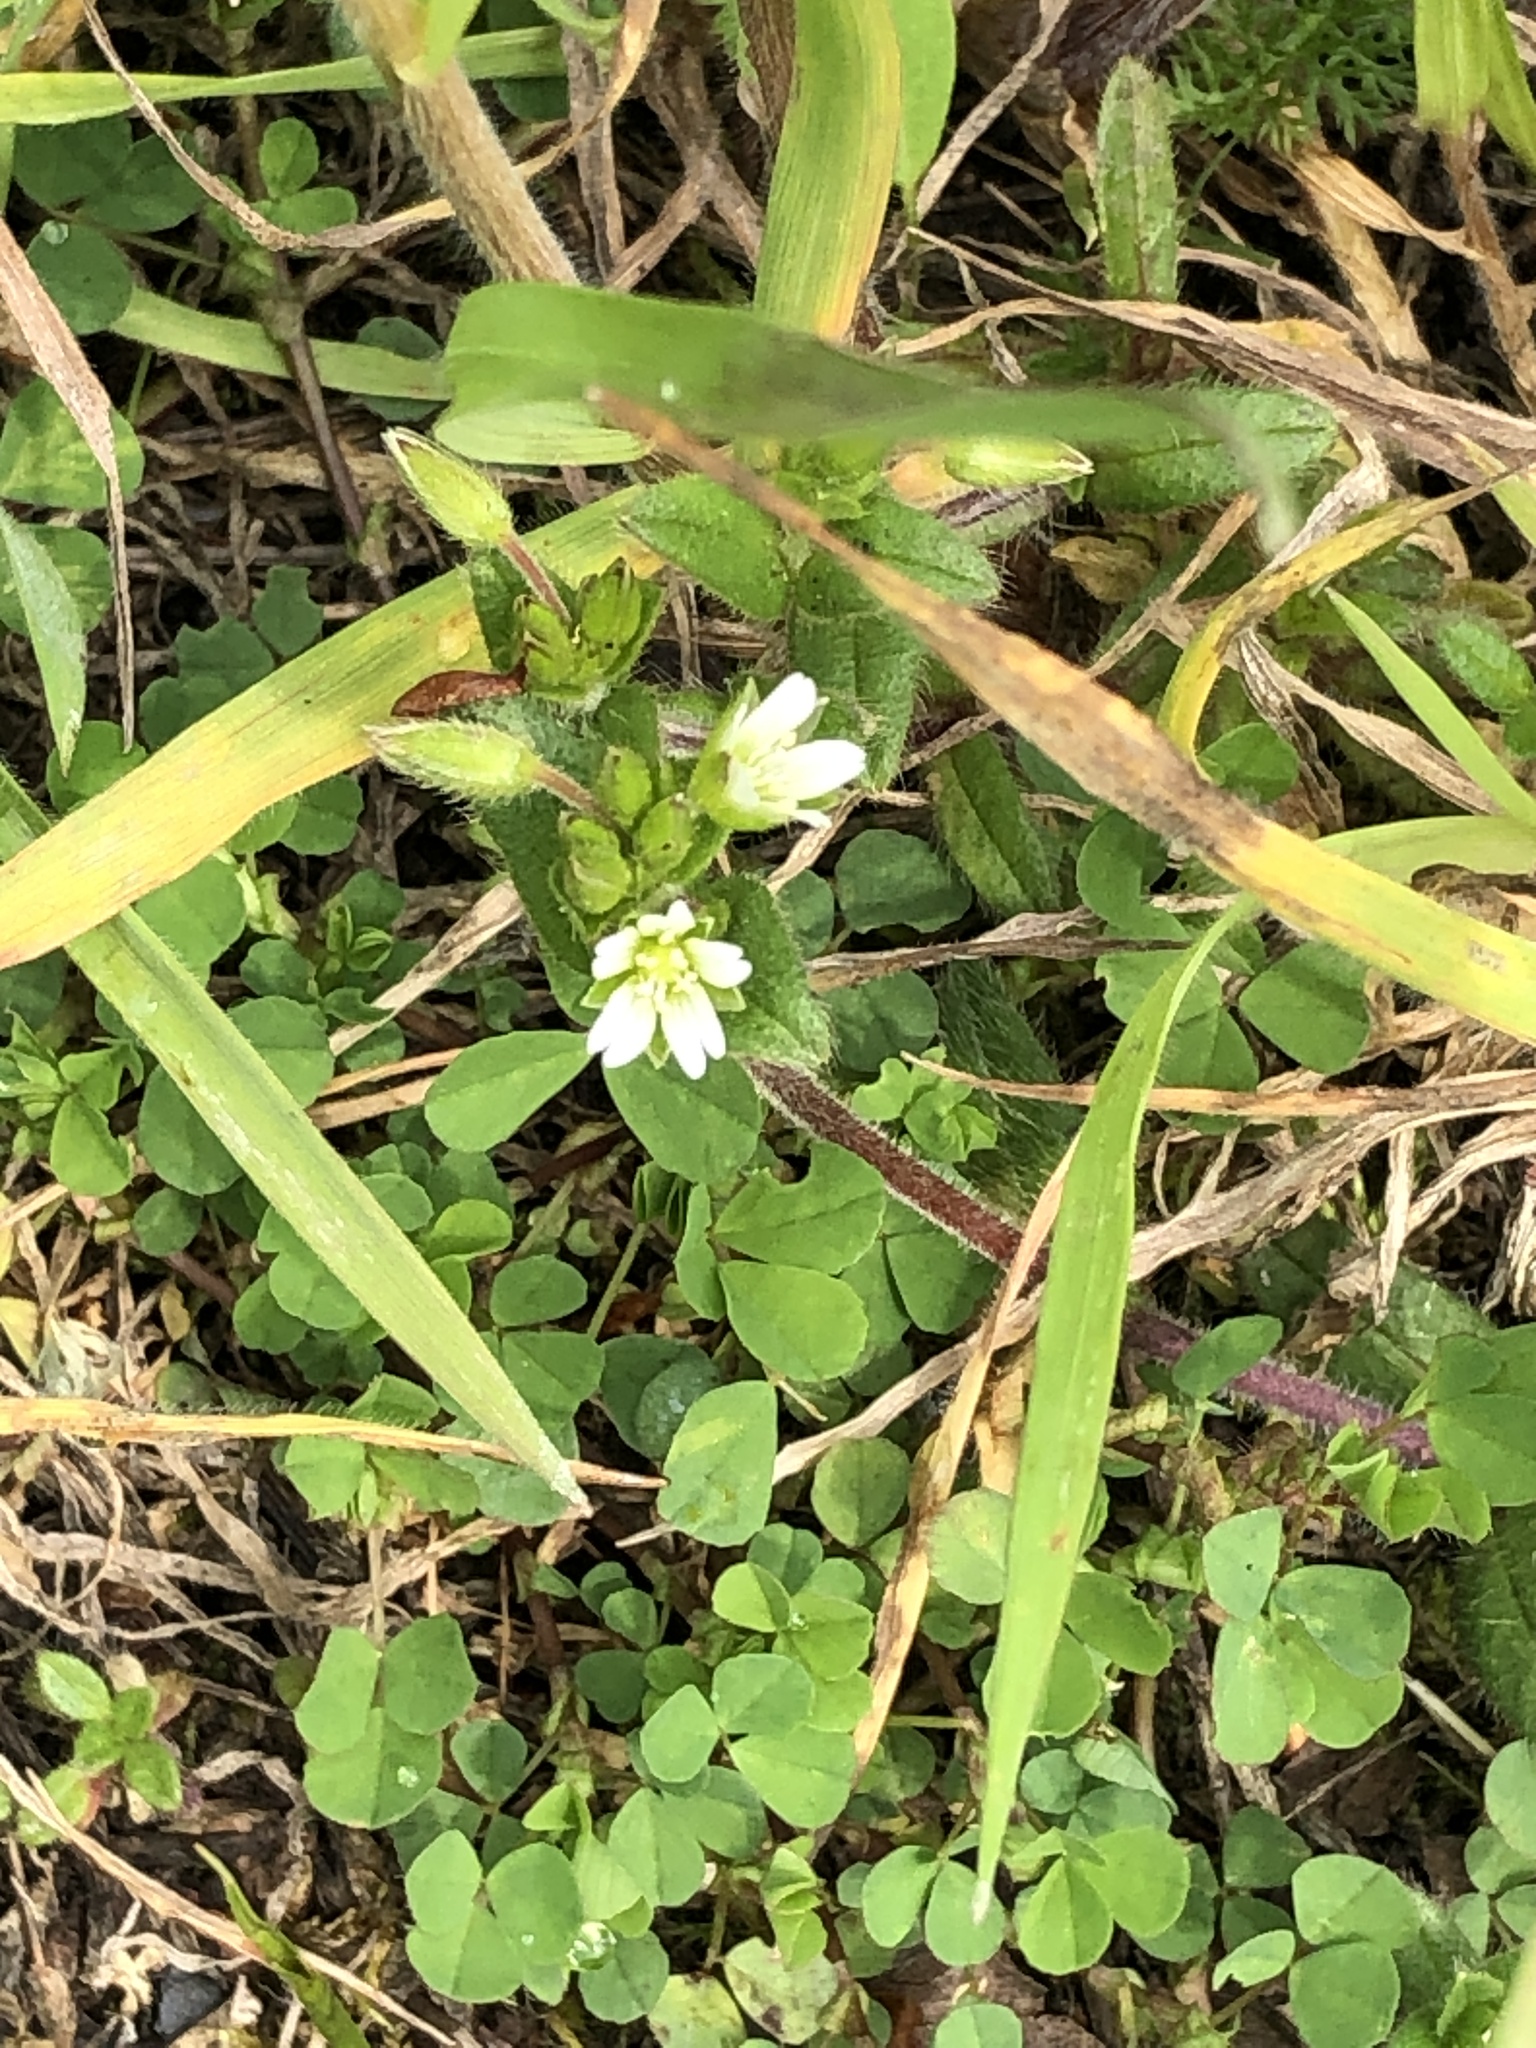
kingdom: Plantae
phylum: Tracheophyta
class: Magnoliopsida
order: Caryophyllales
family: Caryophyllaceae
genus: Cerastium
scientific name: Cerastium fontanum
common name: Common mouse-ear
